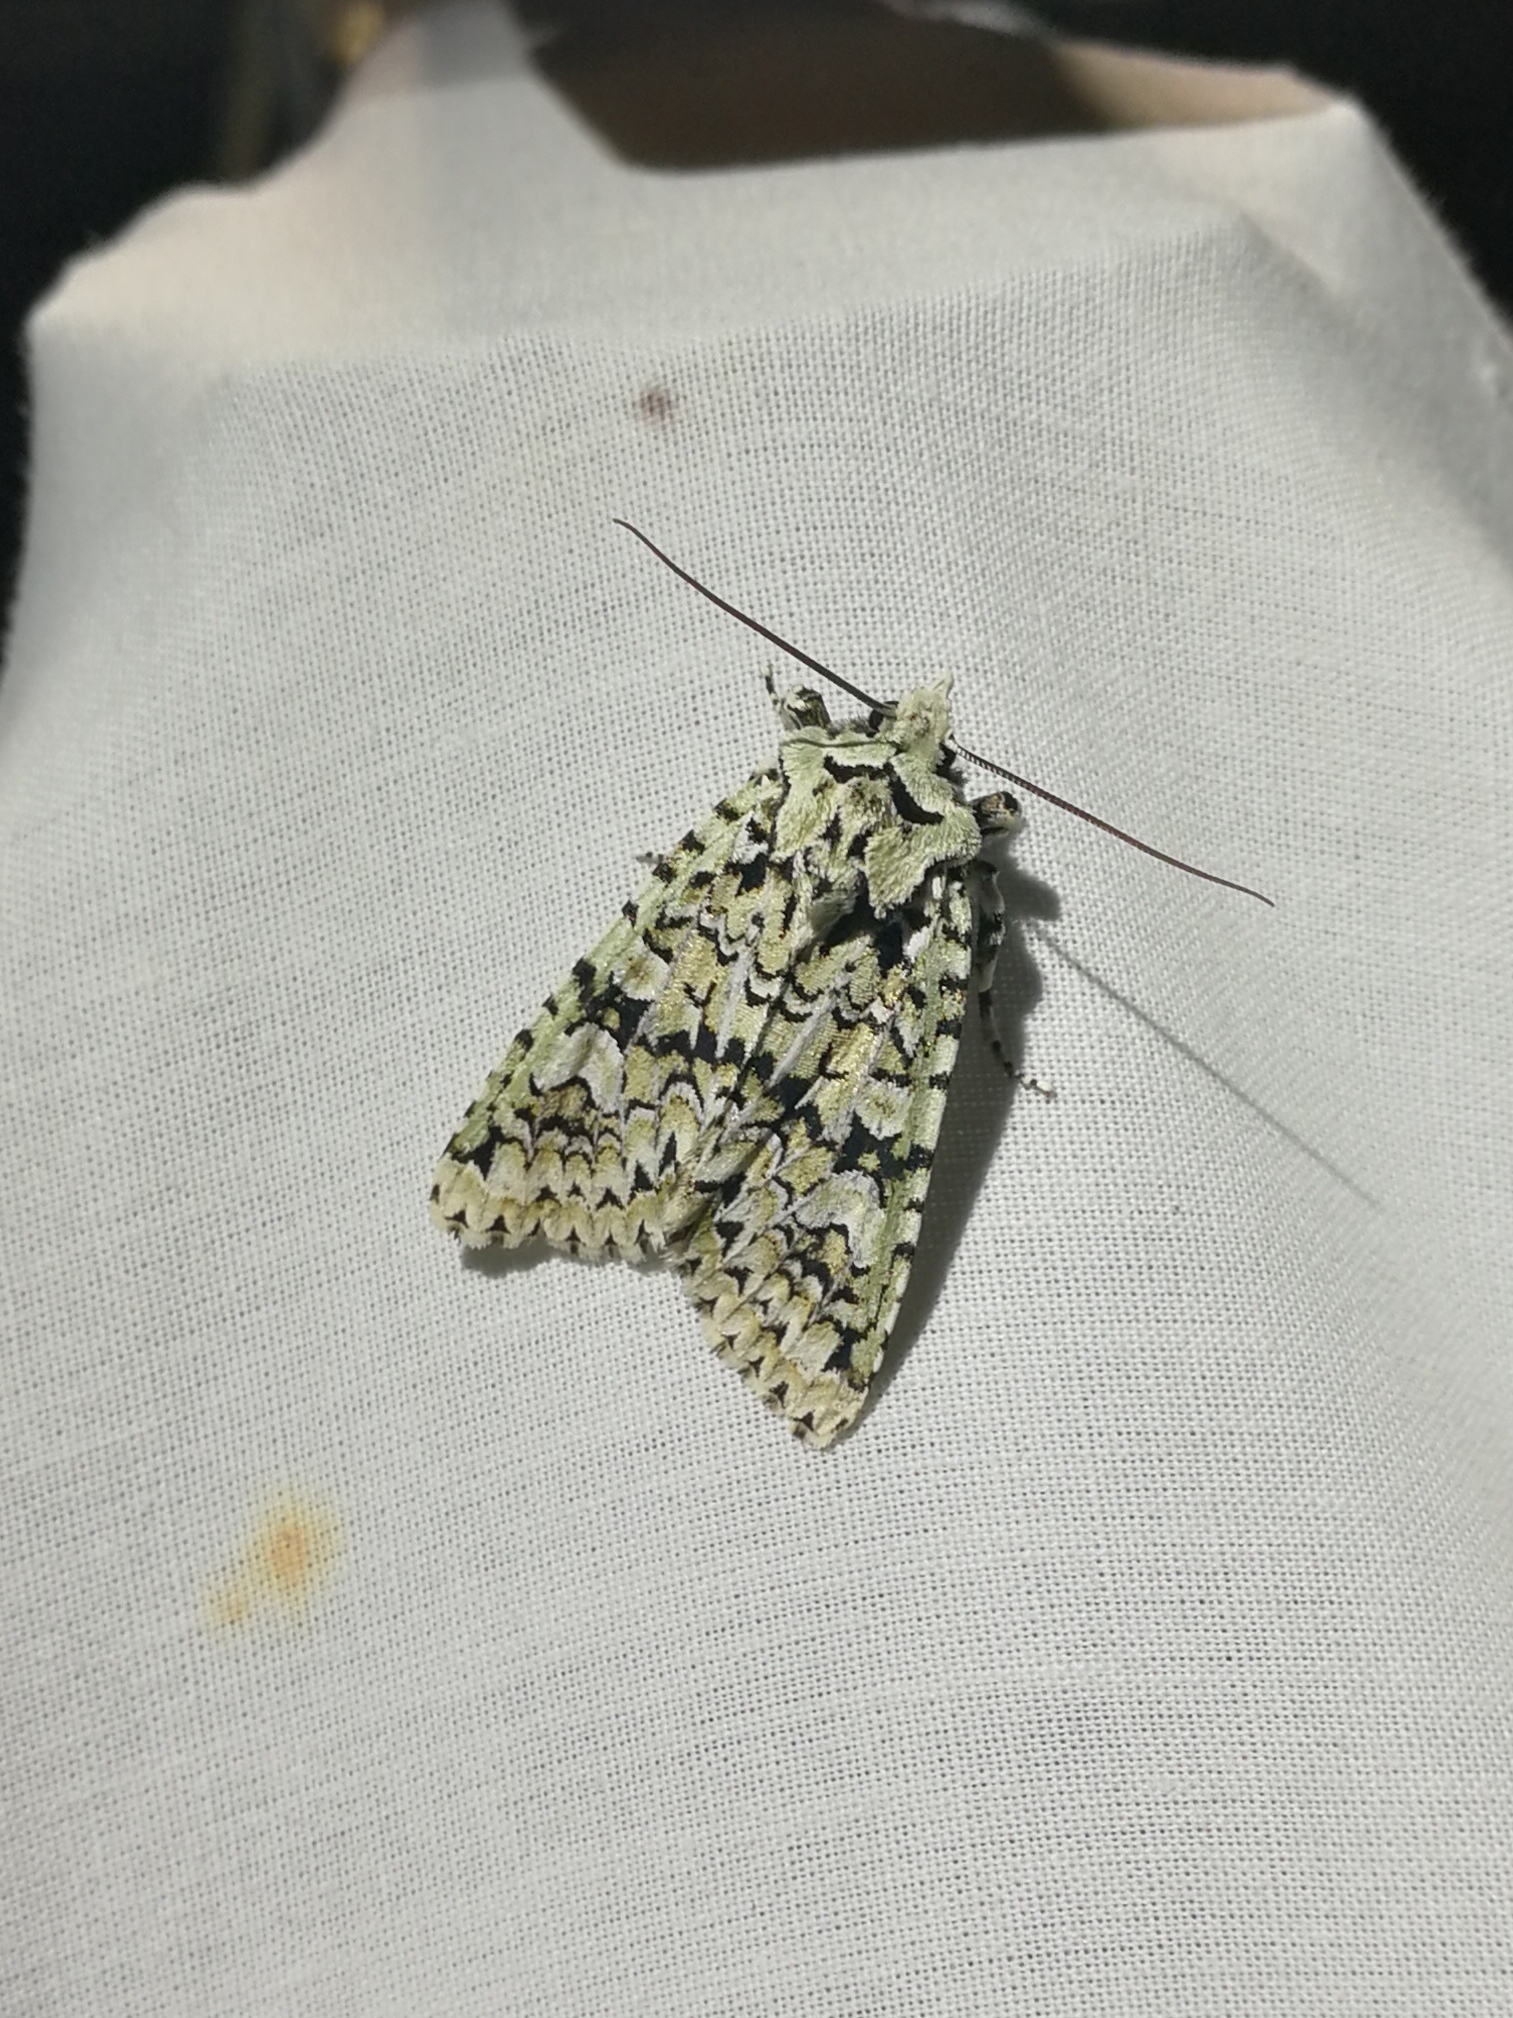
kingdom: Animalia
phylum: Arthropoda
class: Insecta
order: Lepidoptera
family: Noctuidae
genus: Griposia
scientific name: Griposia aprilina
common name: Merveille du jour
